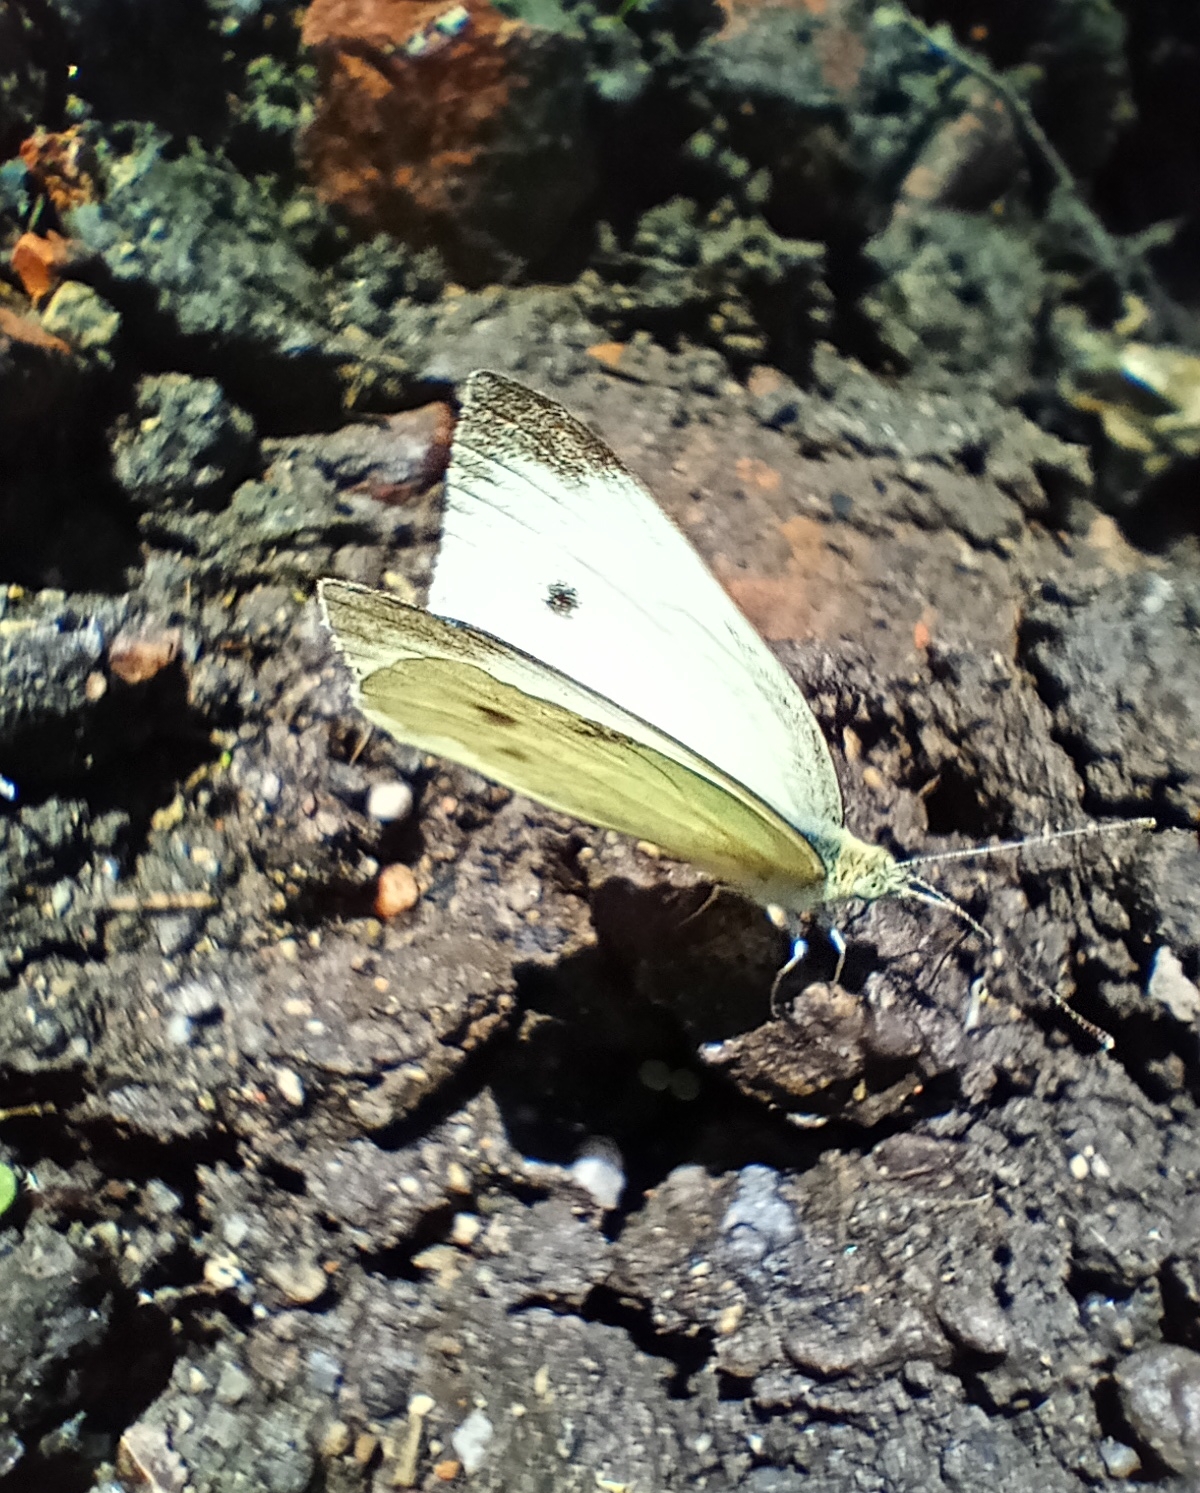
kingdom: Animalia
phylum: Arthropoda
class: Insecta
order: Lepidoptera
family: Pieridae
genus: Pieris
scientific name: Pieris rapae
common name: Small white
